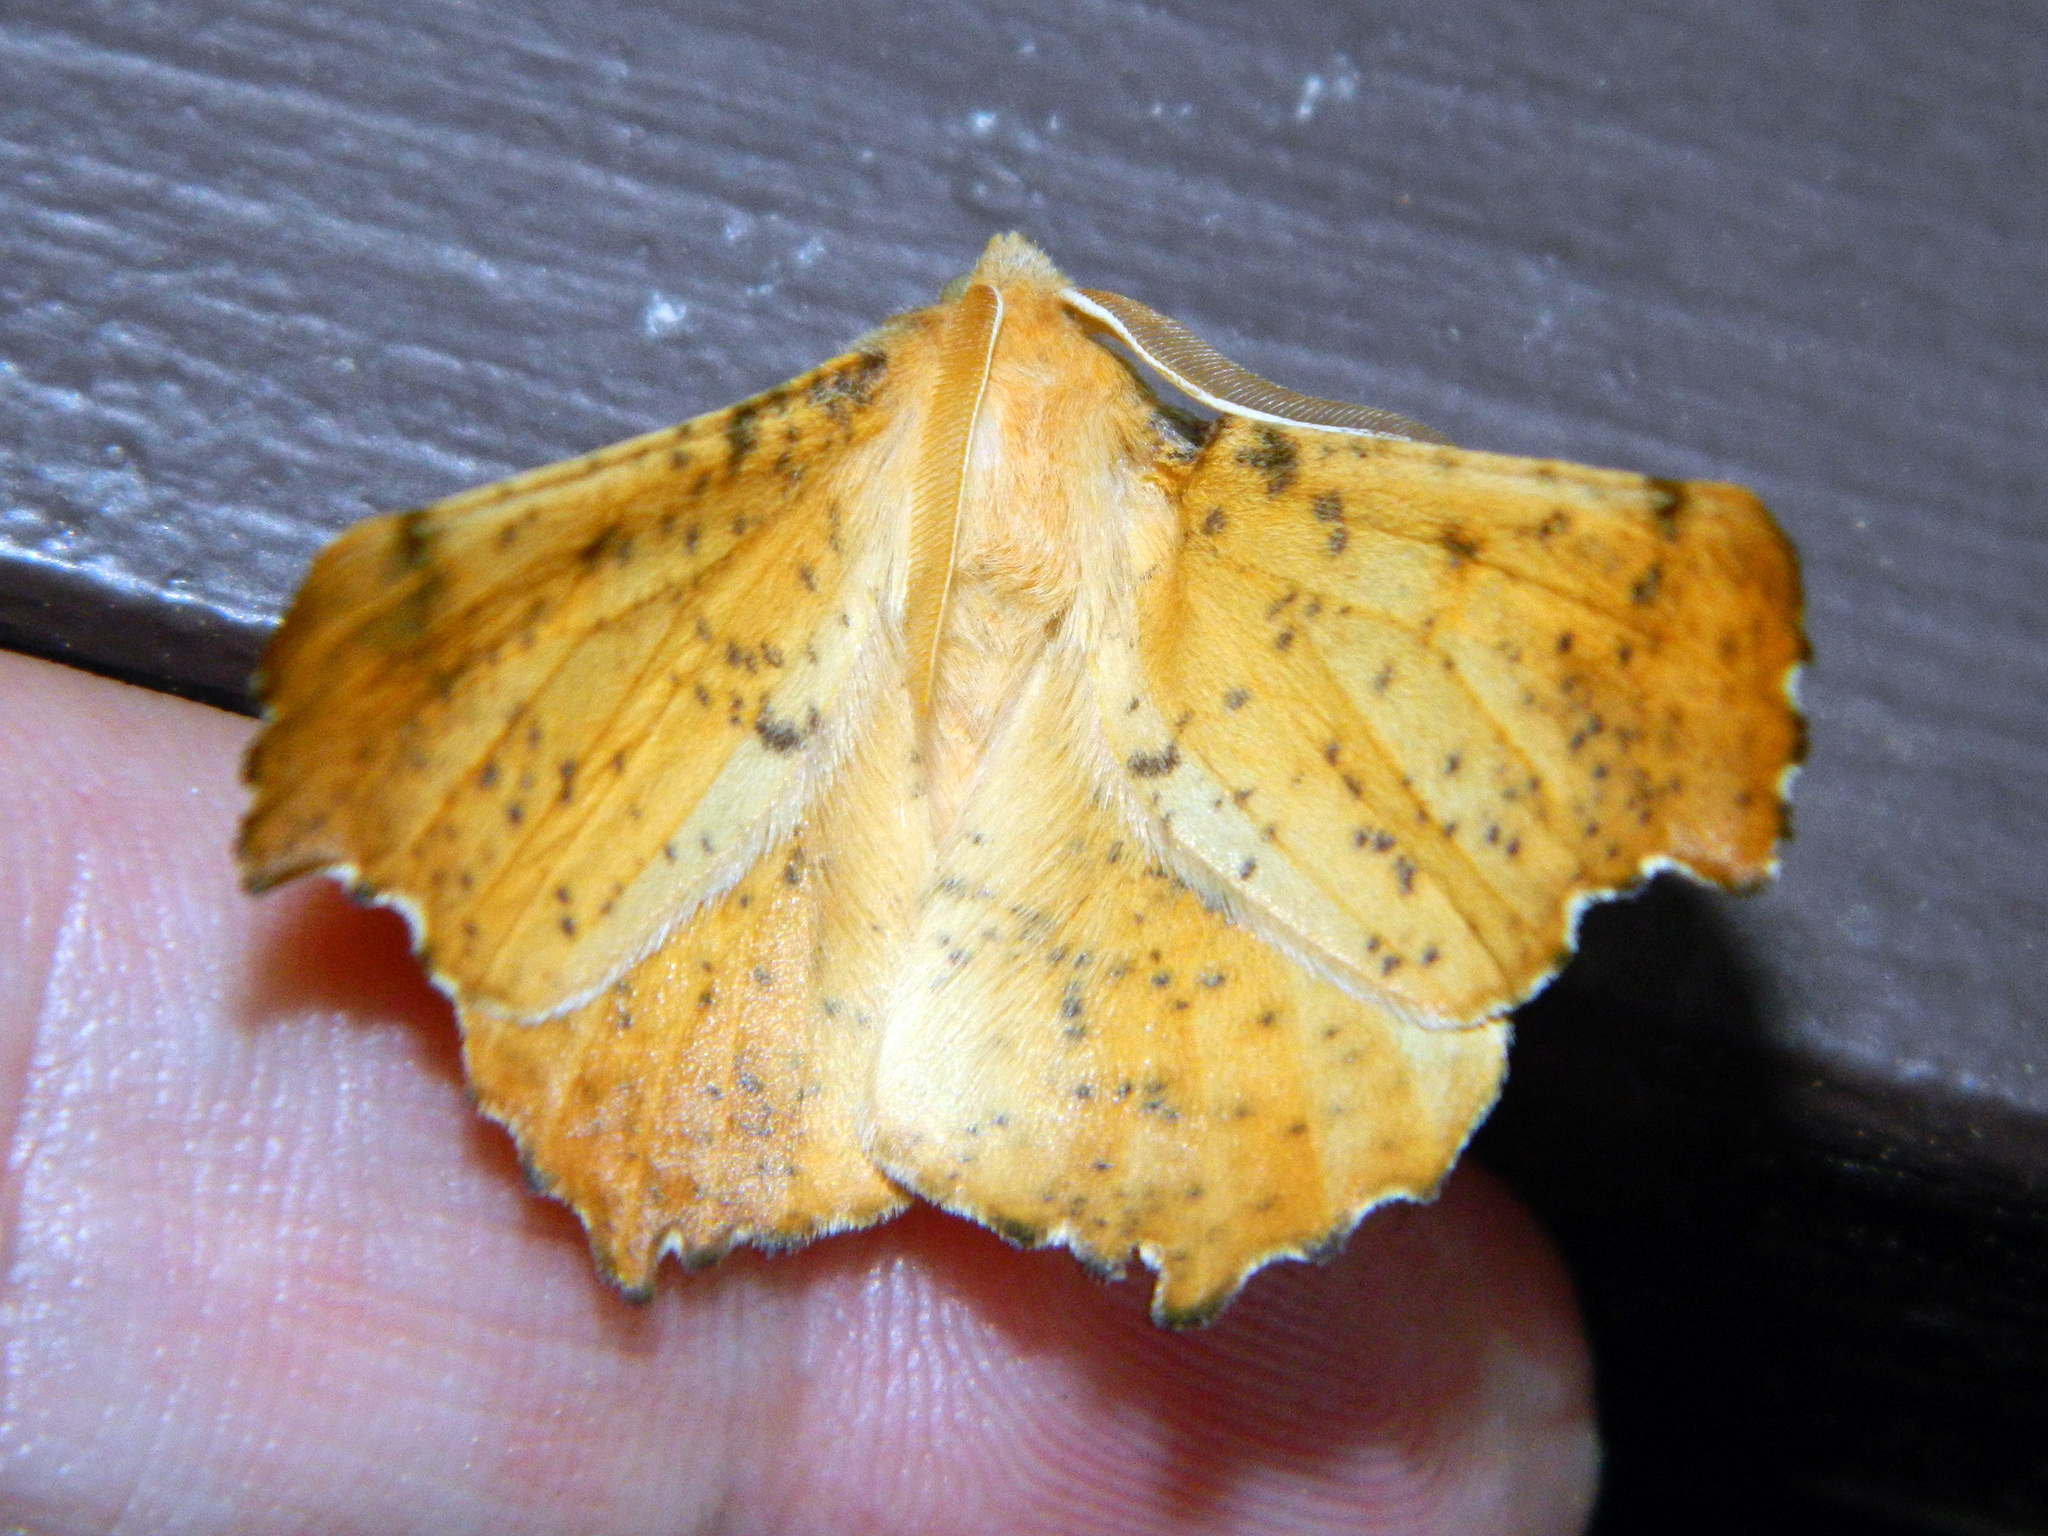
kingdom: Animalia
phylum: Arthropoda
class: Insecta
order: Lepidoptera
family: Geometridae
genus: Ennomos
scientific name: Ennomos magnaria
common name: Maple spanworm
